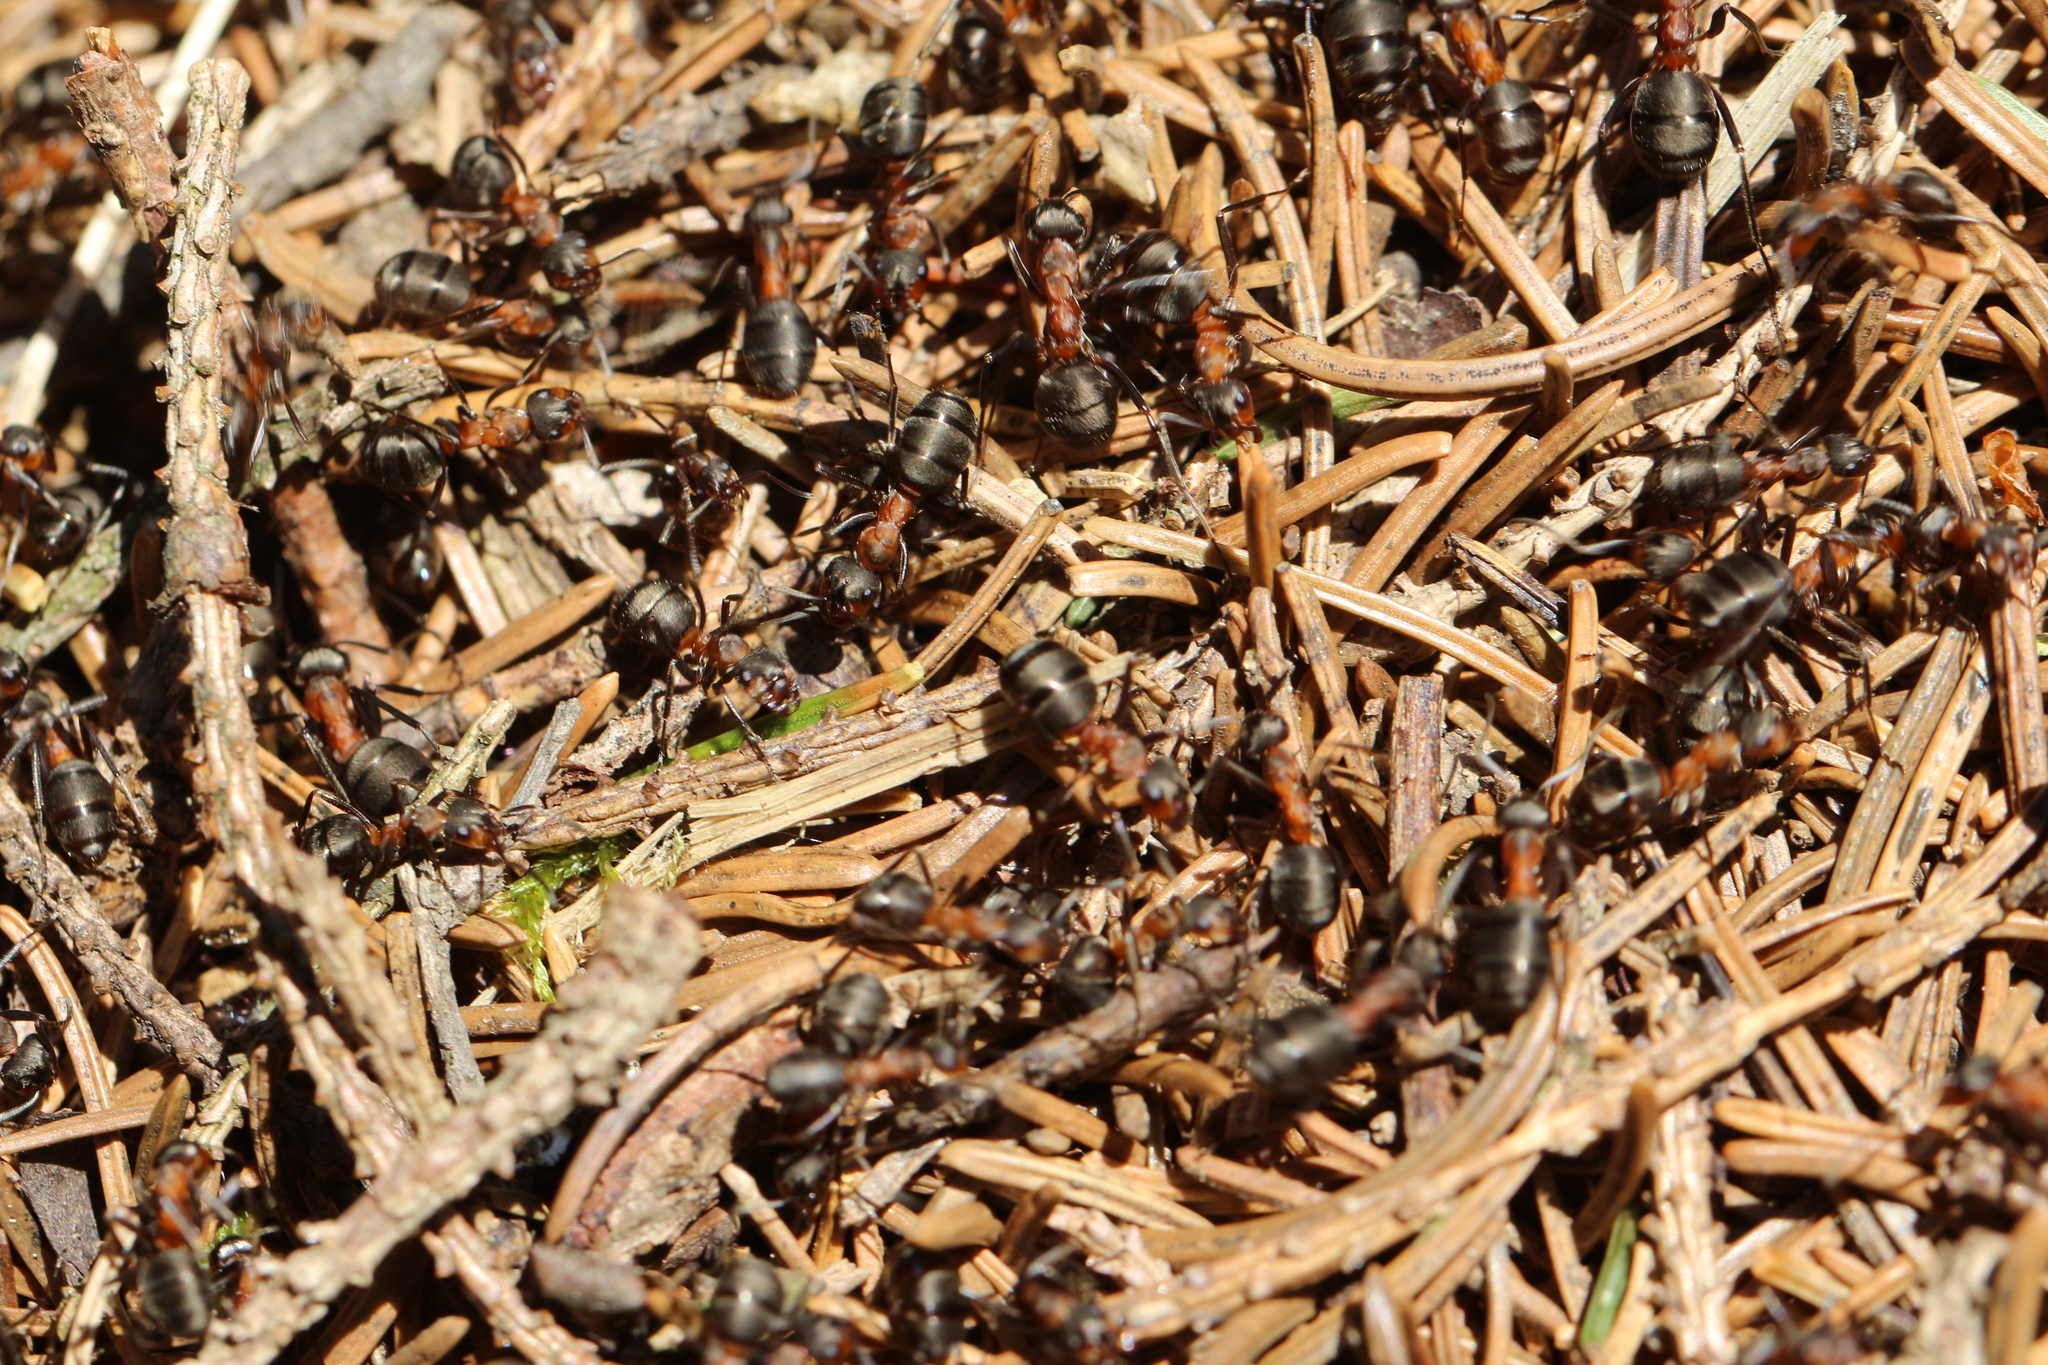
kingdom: Animalia
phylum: Arthropoda
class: Insecta
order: Hymenoptera
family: Formicidae
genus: Formica
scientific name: Formica
